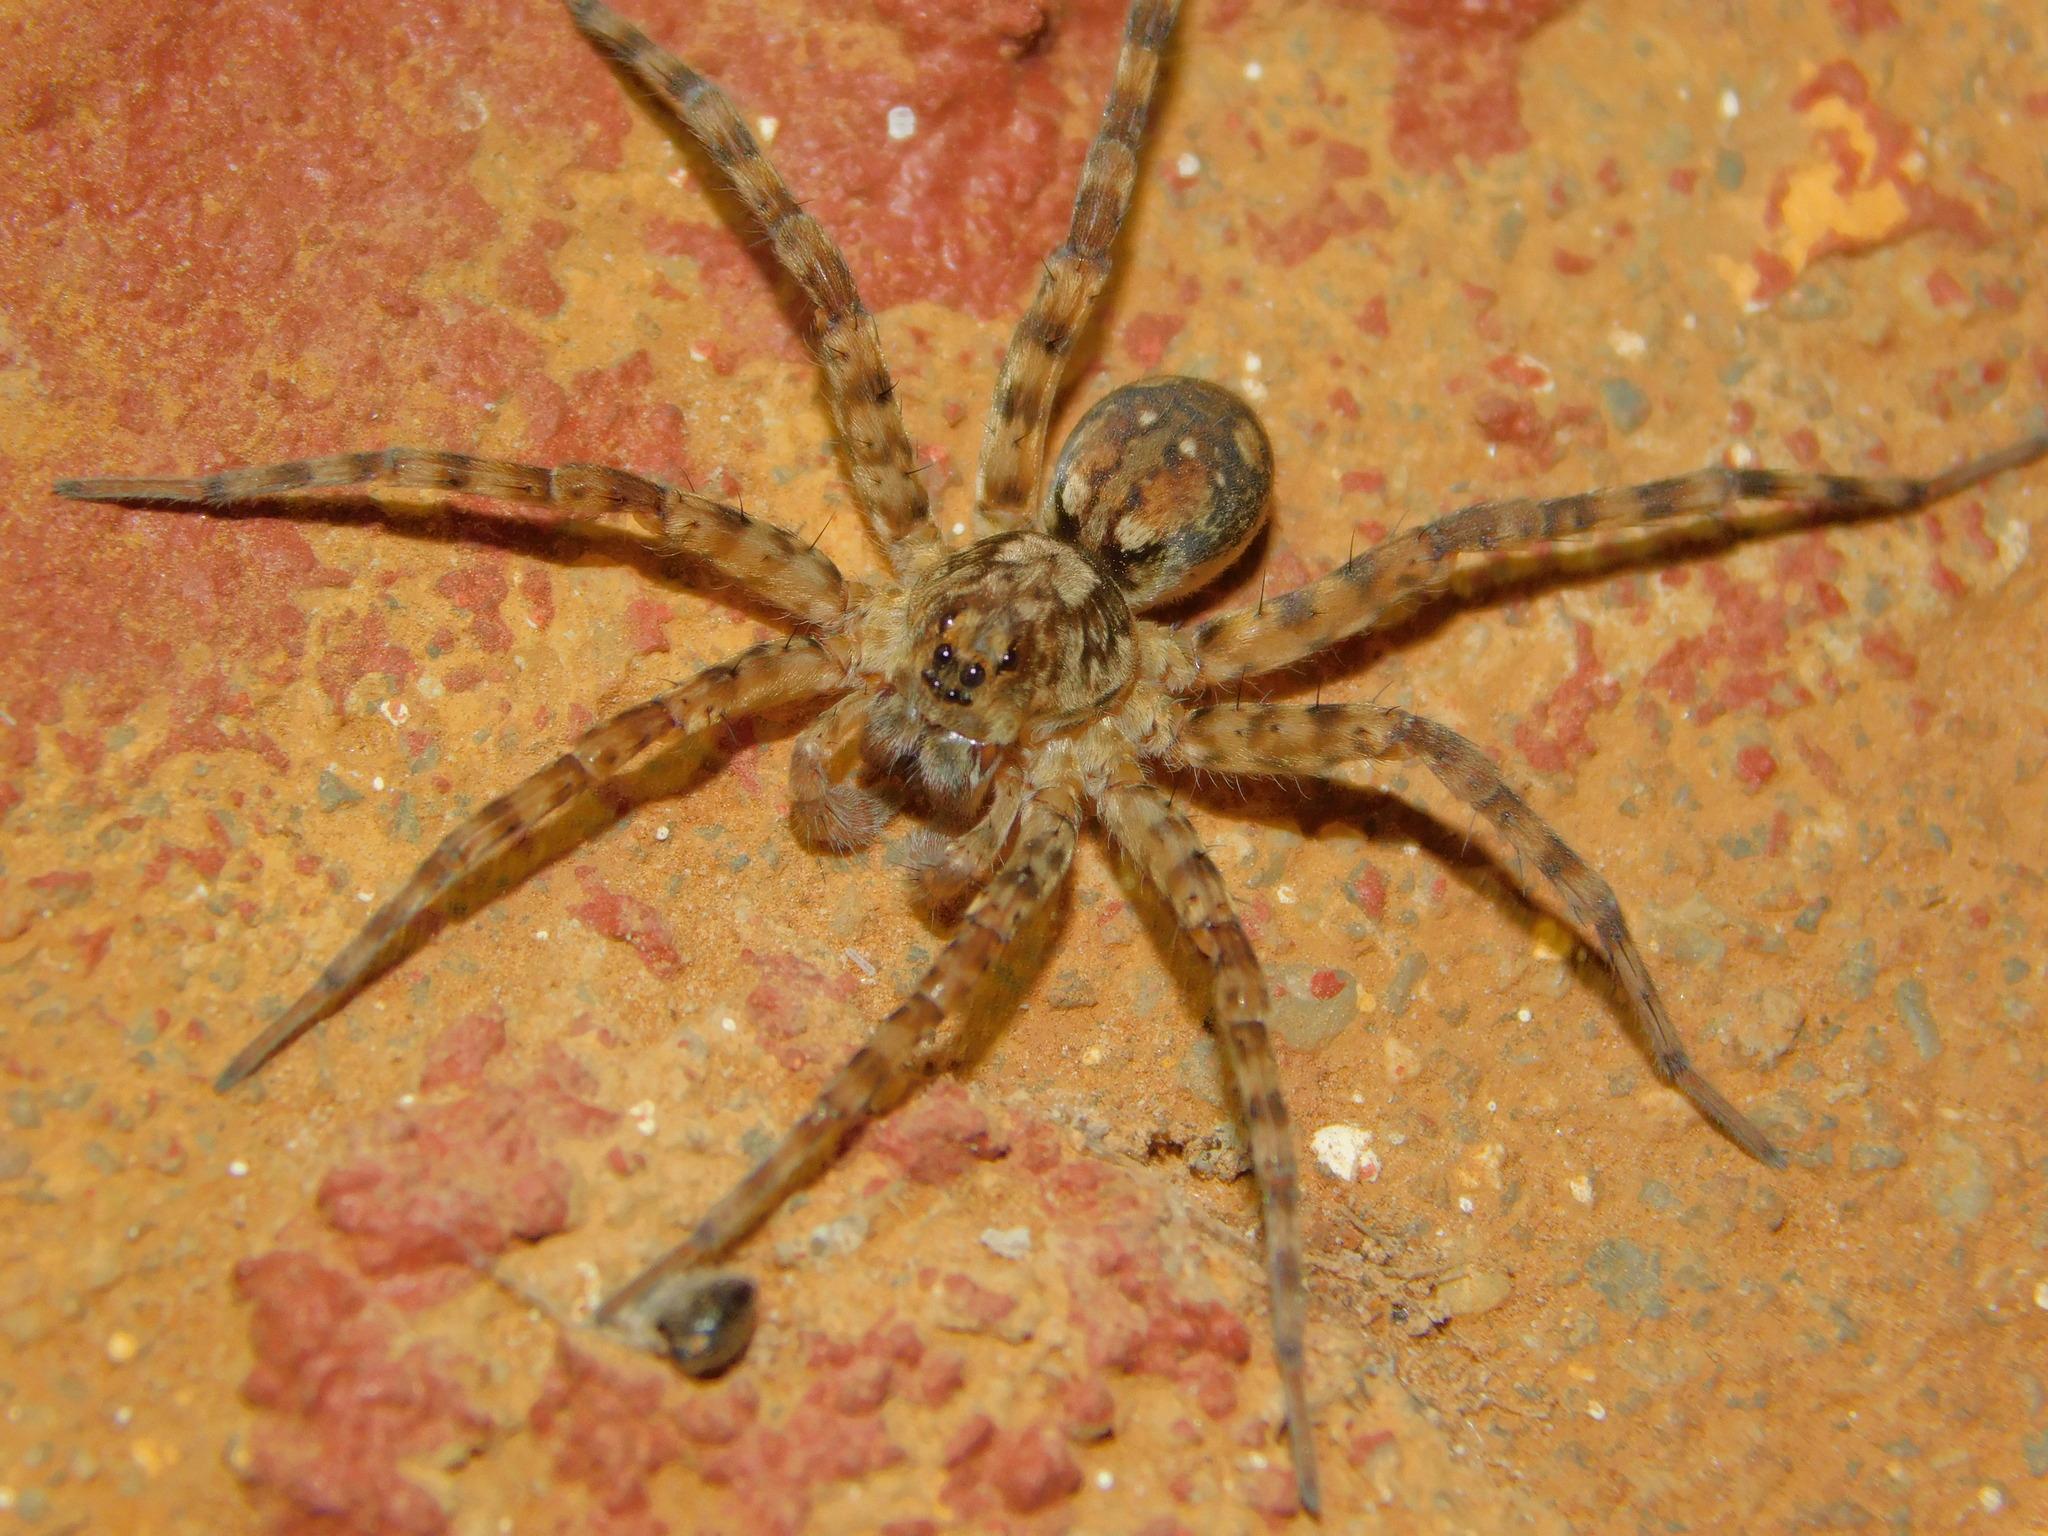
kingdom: Animalia
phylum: Arthropoda
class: Arachnida
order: Araneae
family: Lycosidae
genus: Ocyale
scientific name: Ocyale guttata
